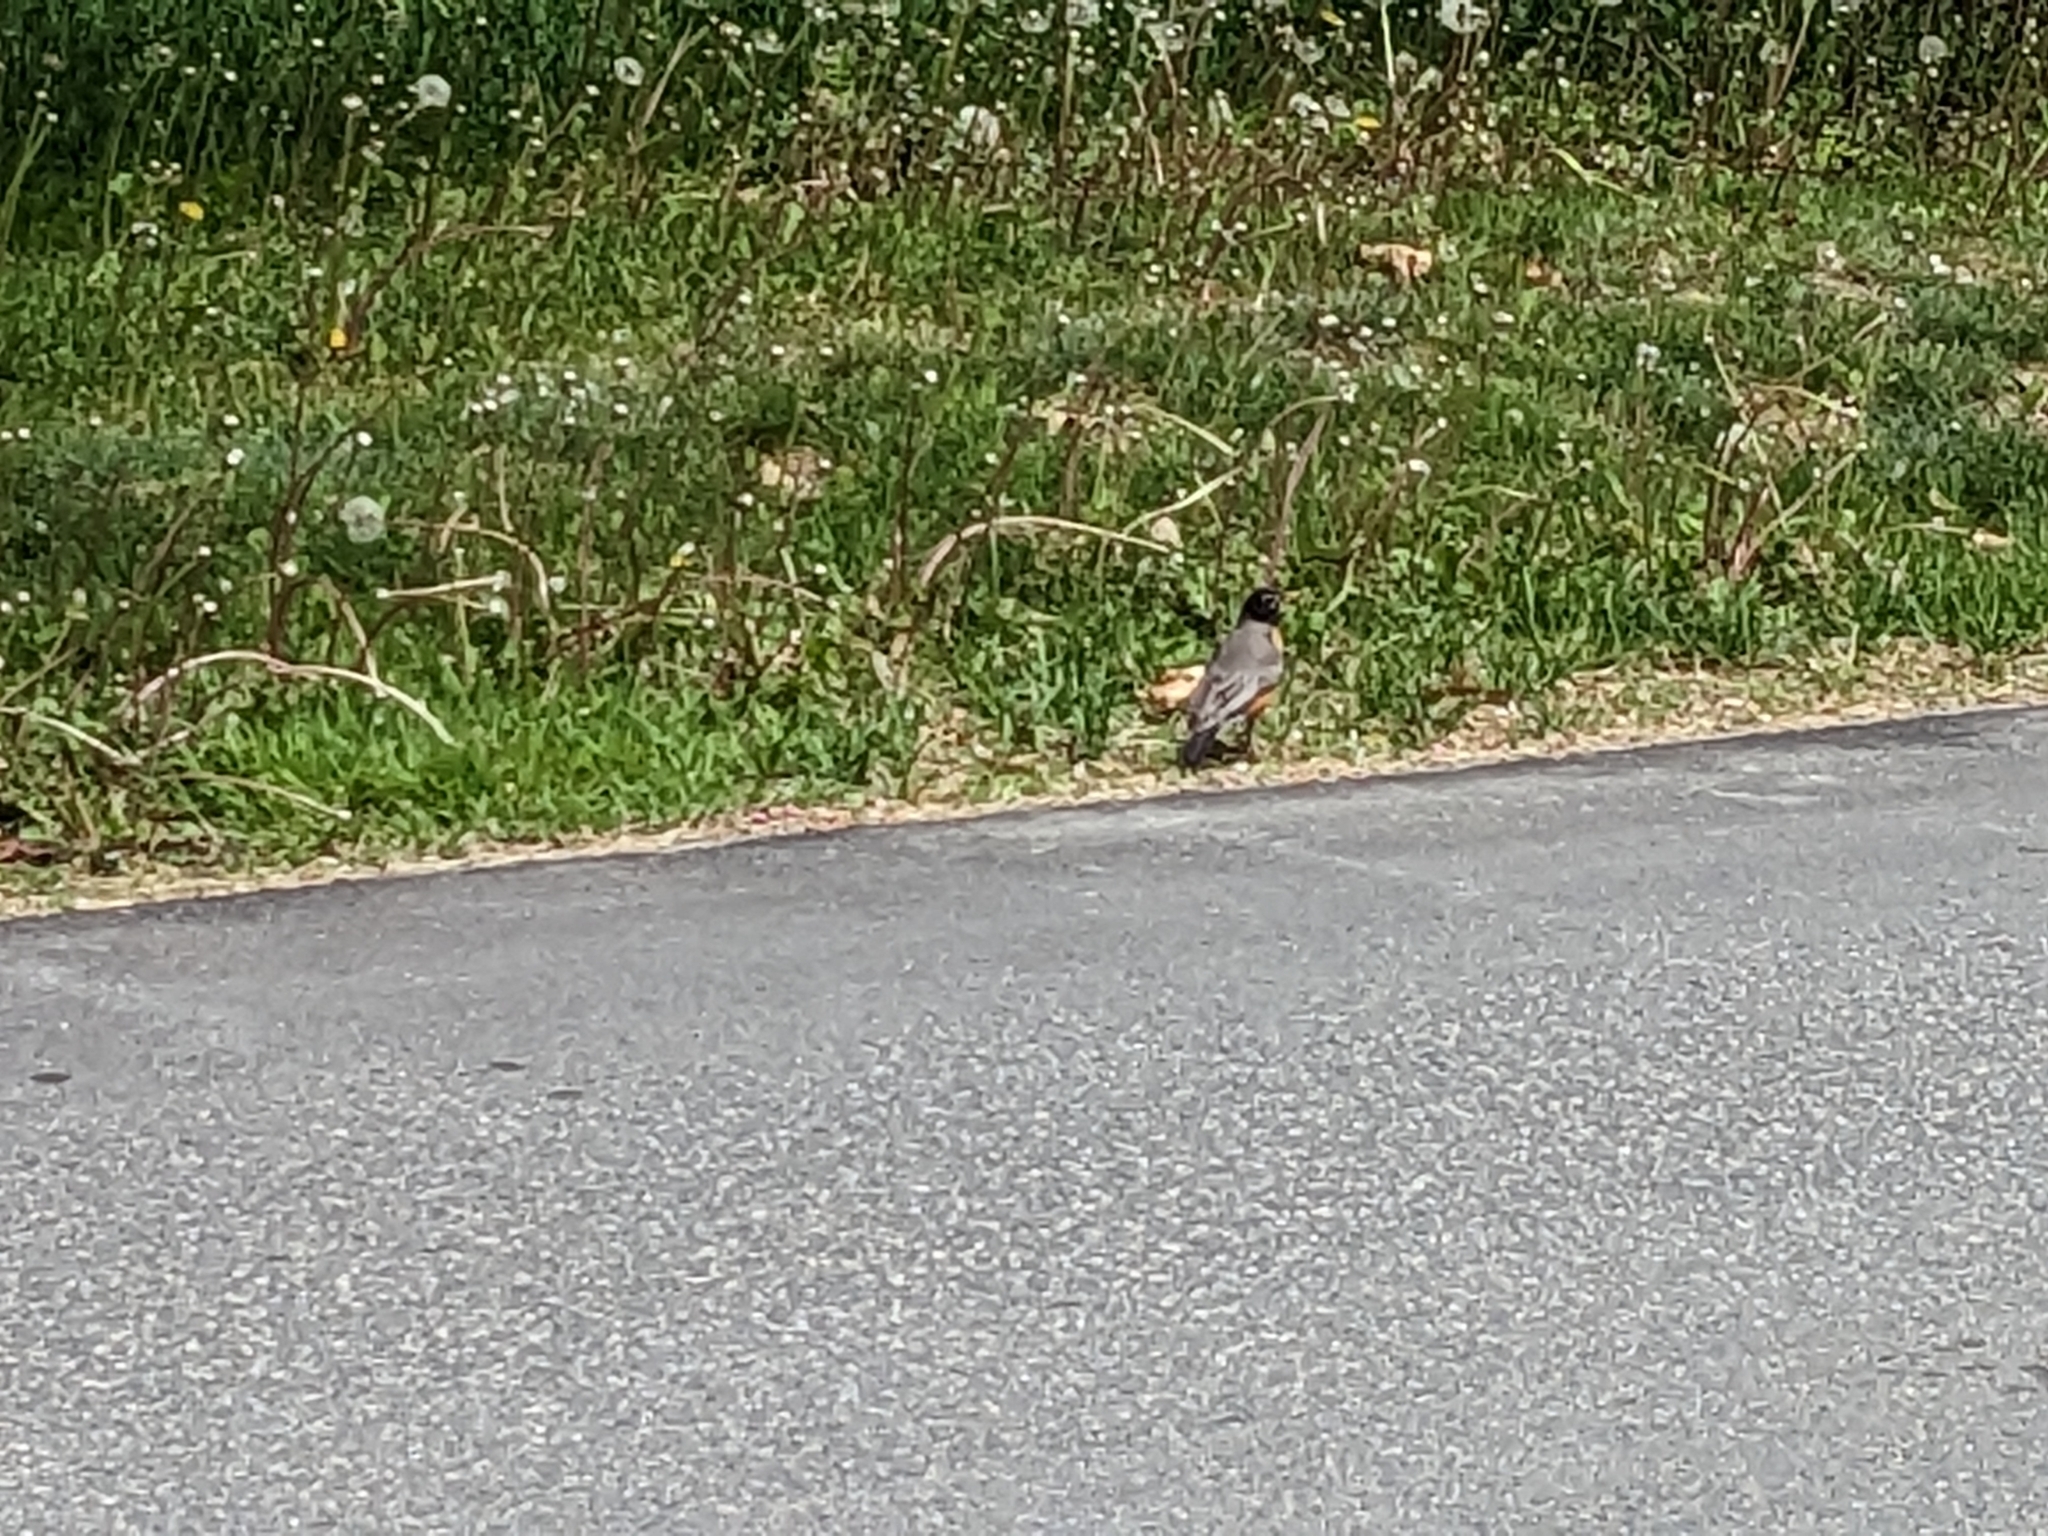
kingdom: Animalia
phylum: Chordata
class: Aves
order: Passeriformes
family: Turdidae
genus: Turdus
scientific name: Turdus migratorius
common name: American robin
